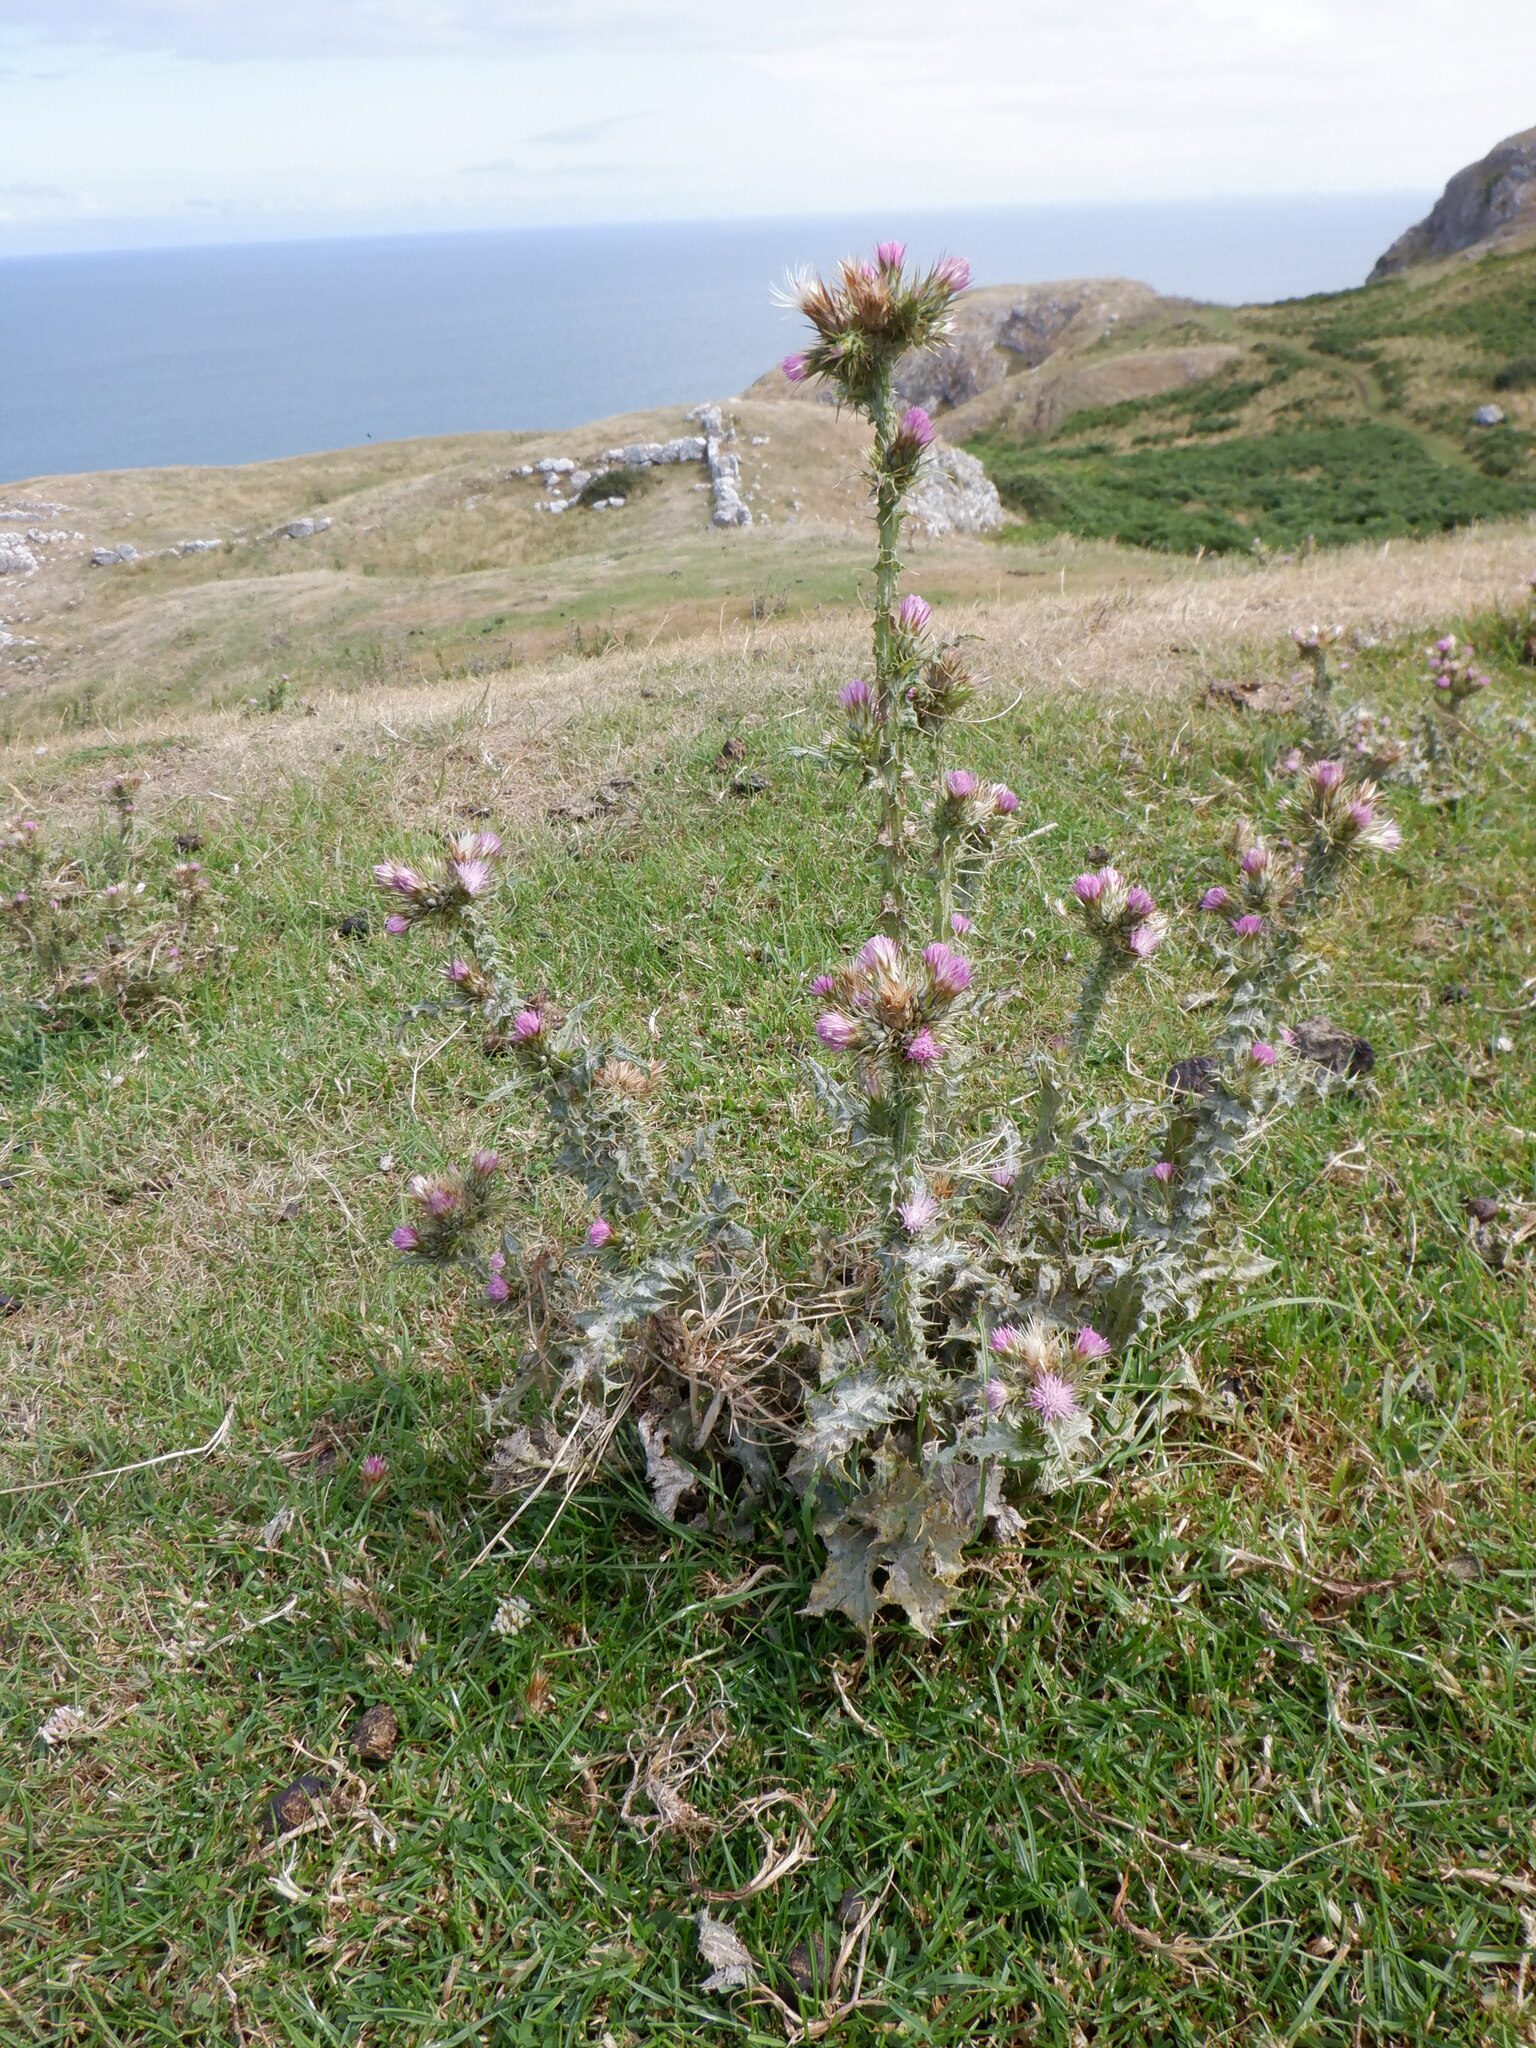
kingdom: Plantae
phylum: Tracheophyta
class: Magnoliopsida
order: Asterales
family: Asteraceae
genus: Carduus
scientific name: Carduus tenuiflorus
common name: Slender thistle
